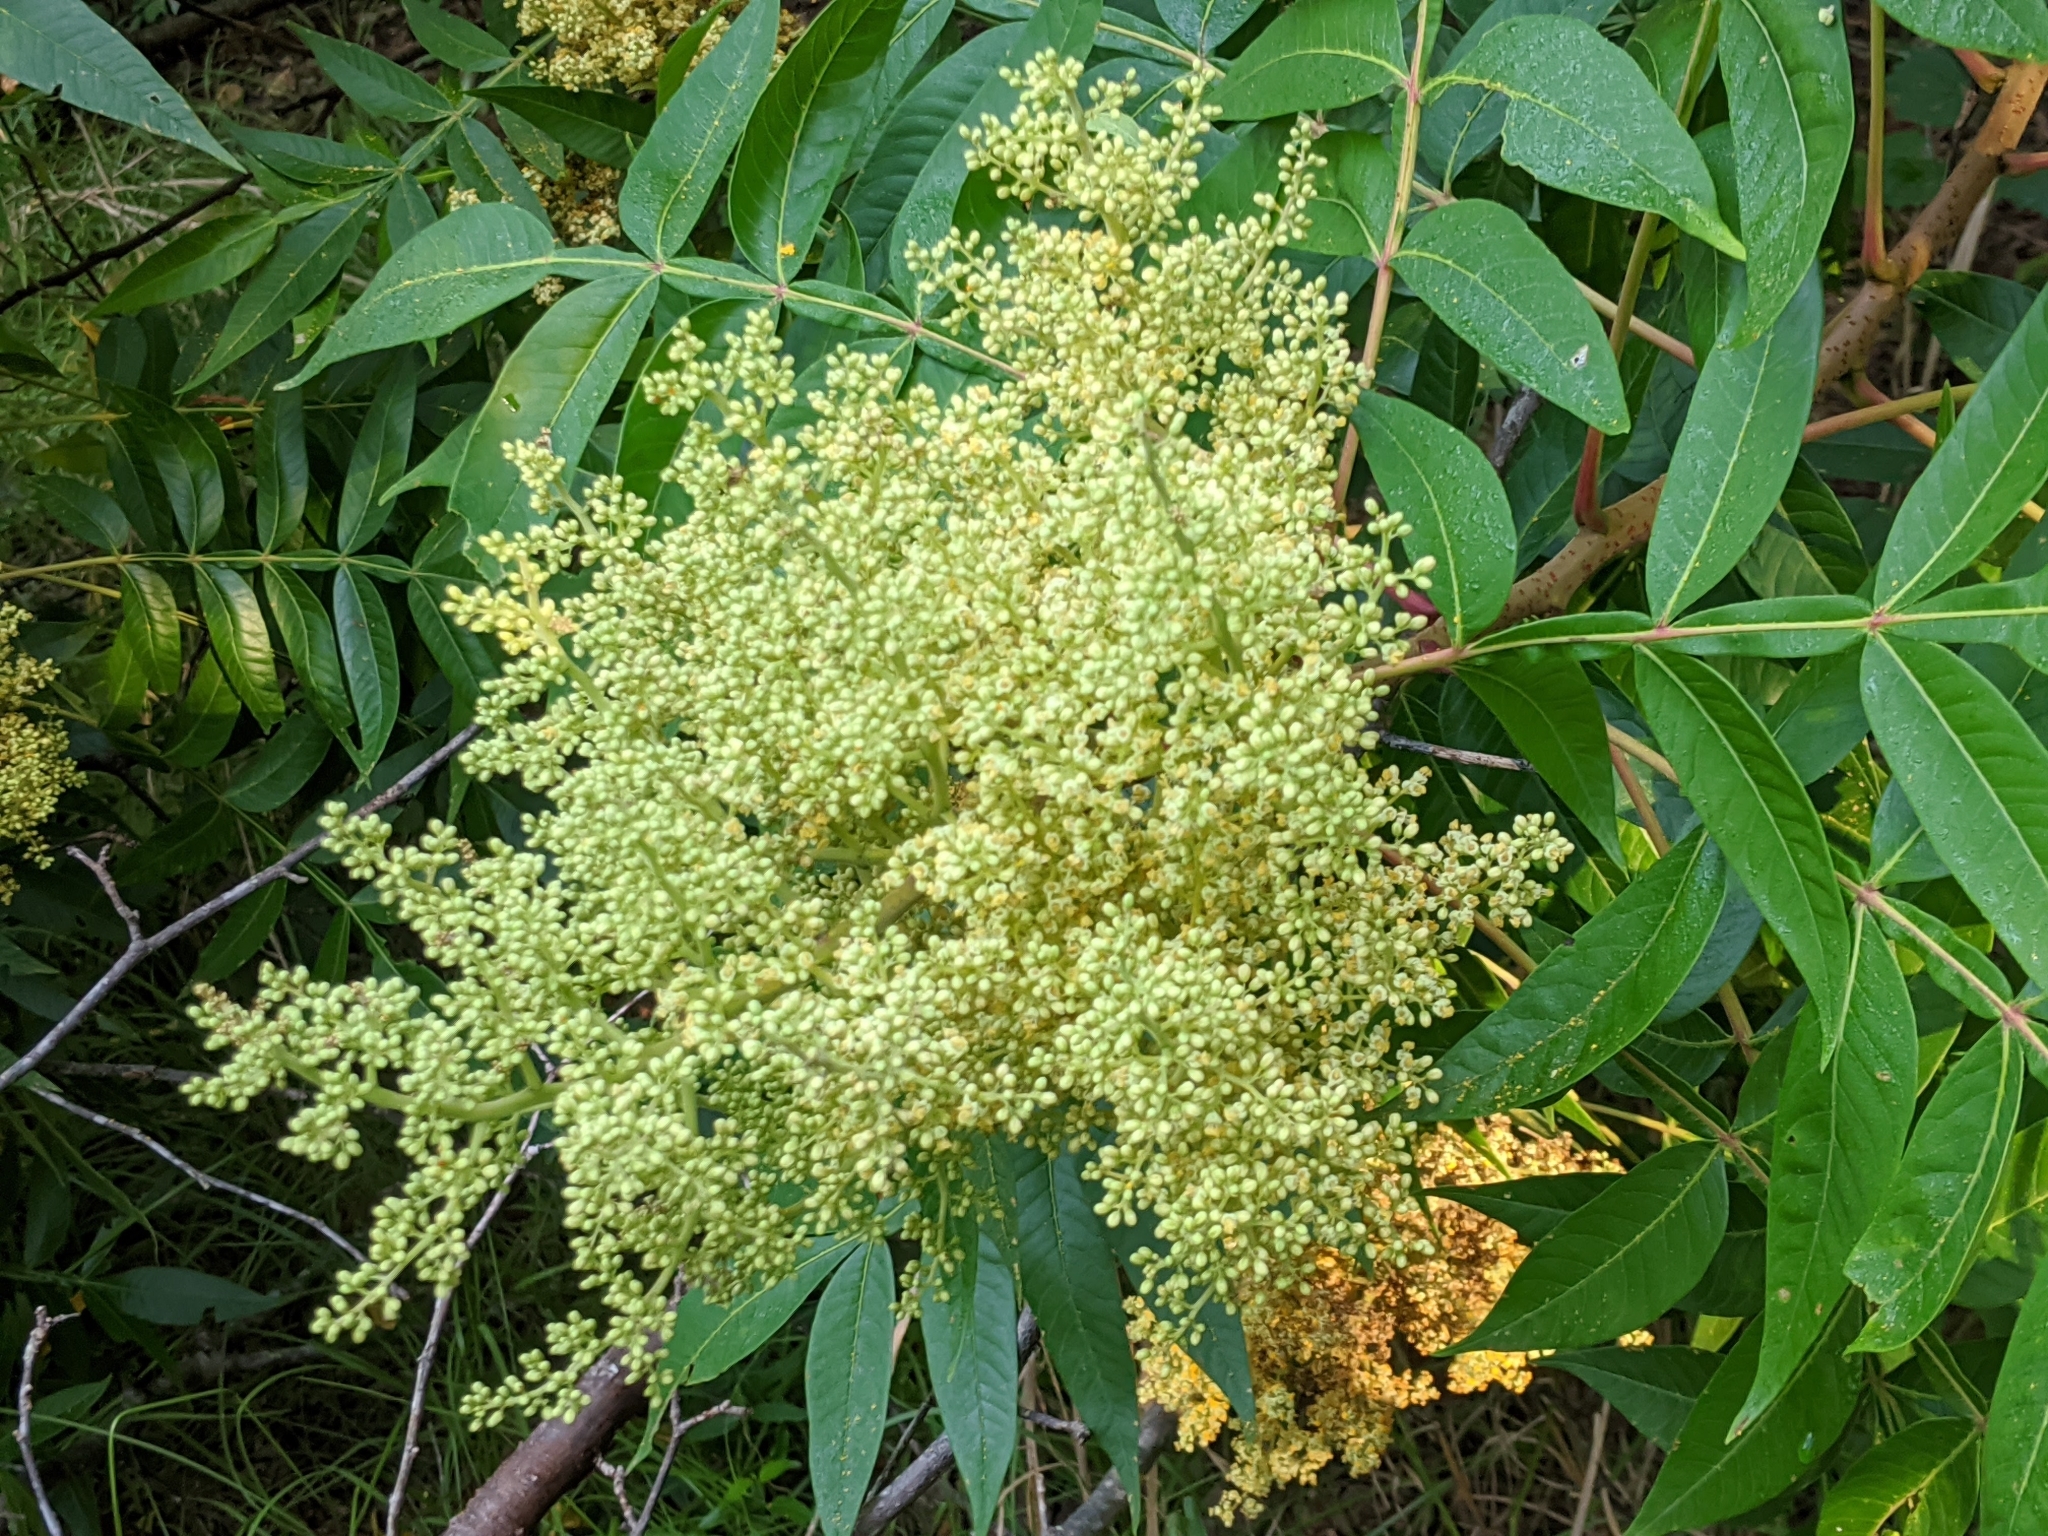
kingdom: Plantae
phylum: Tracheophyta
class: Magnoliopsida
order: Sapindales
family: Anacardiaceae
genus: Rhus
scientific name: Rhus copallina
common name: Shining sumac
